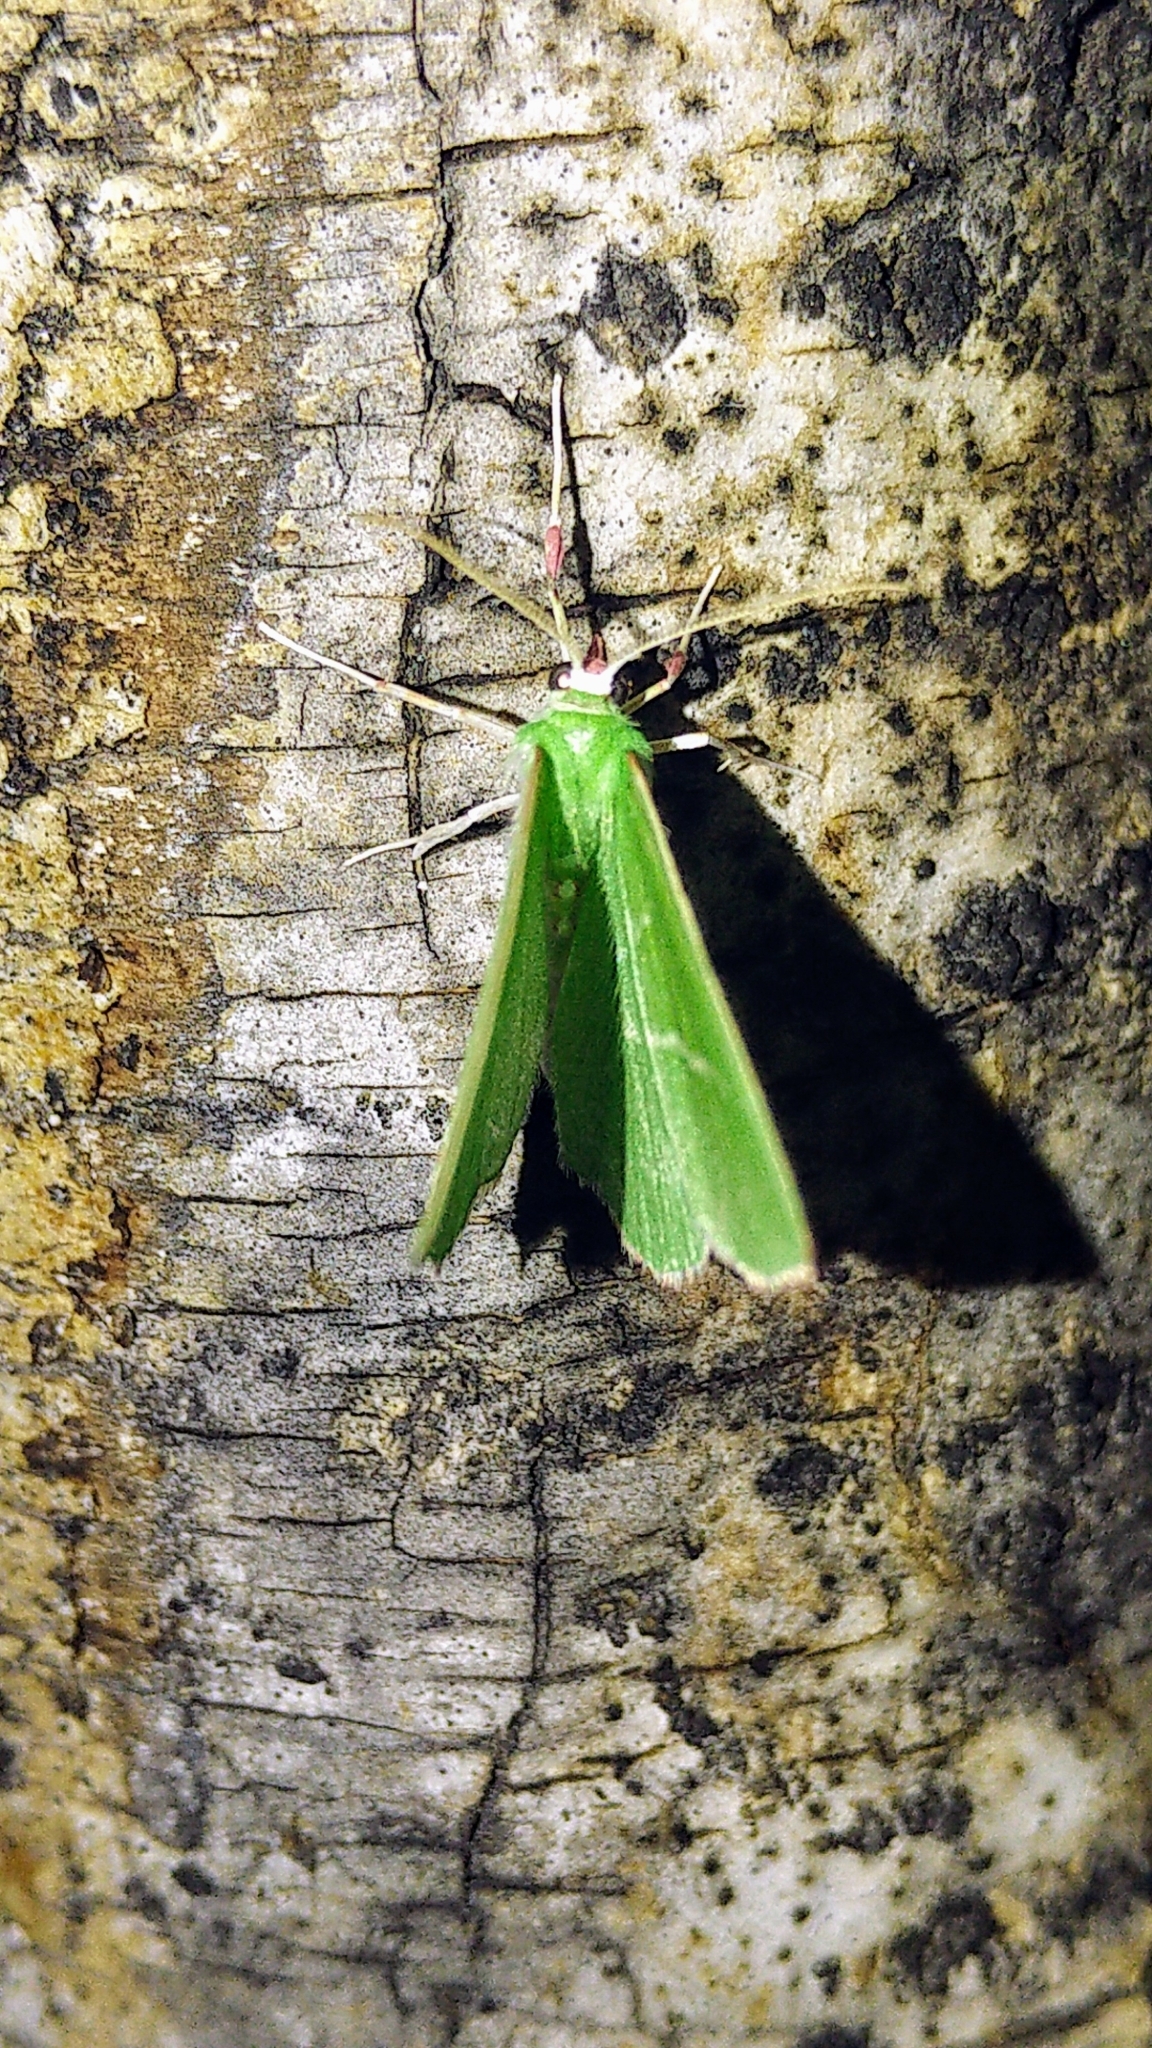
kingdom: Animalia
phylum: Arthropoda
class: Insecta
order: Lepidoptera
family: Geometridae
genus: Nemoria
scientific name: Nemoria mimosaria
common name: White-fringed emerald
